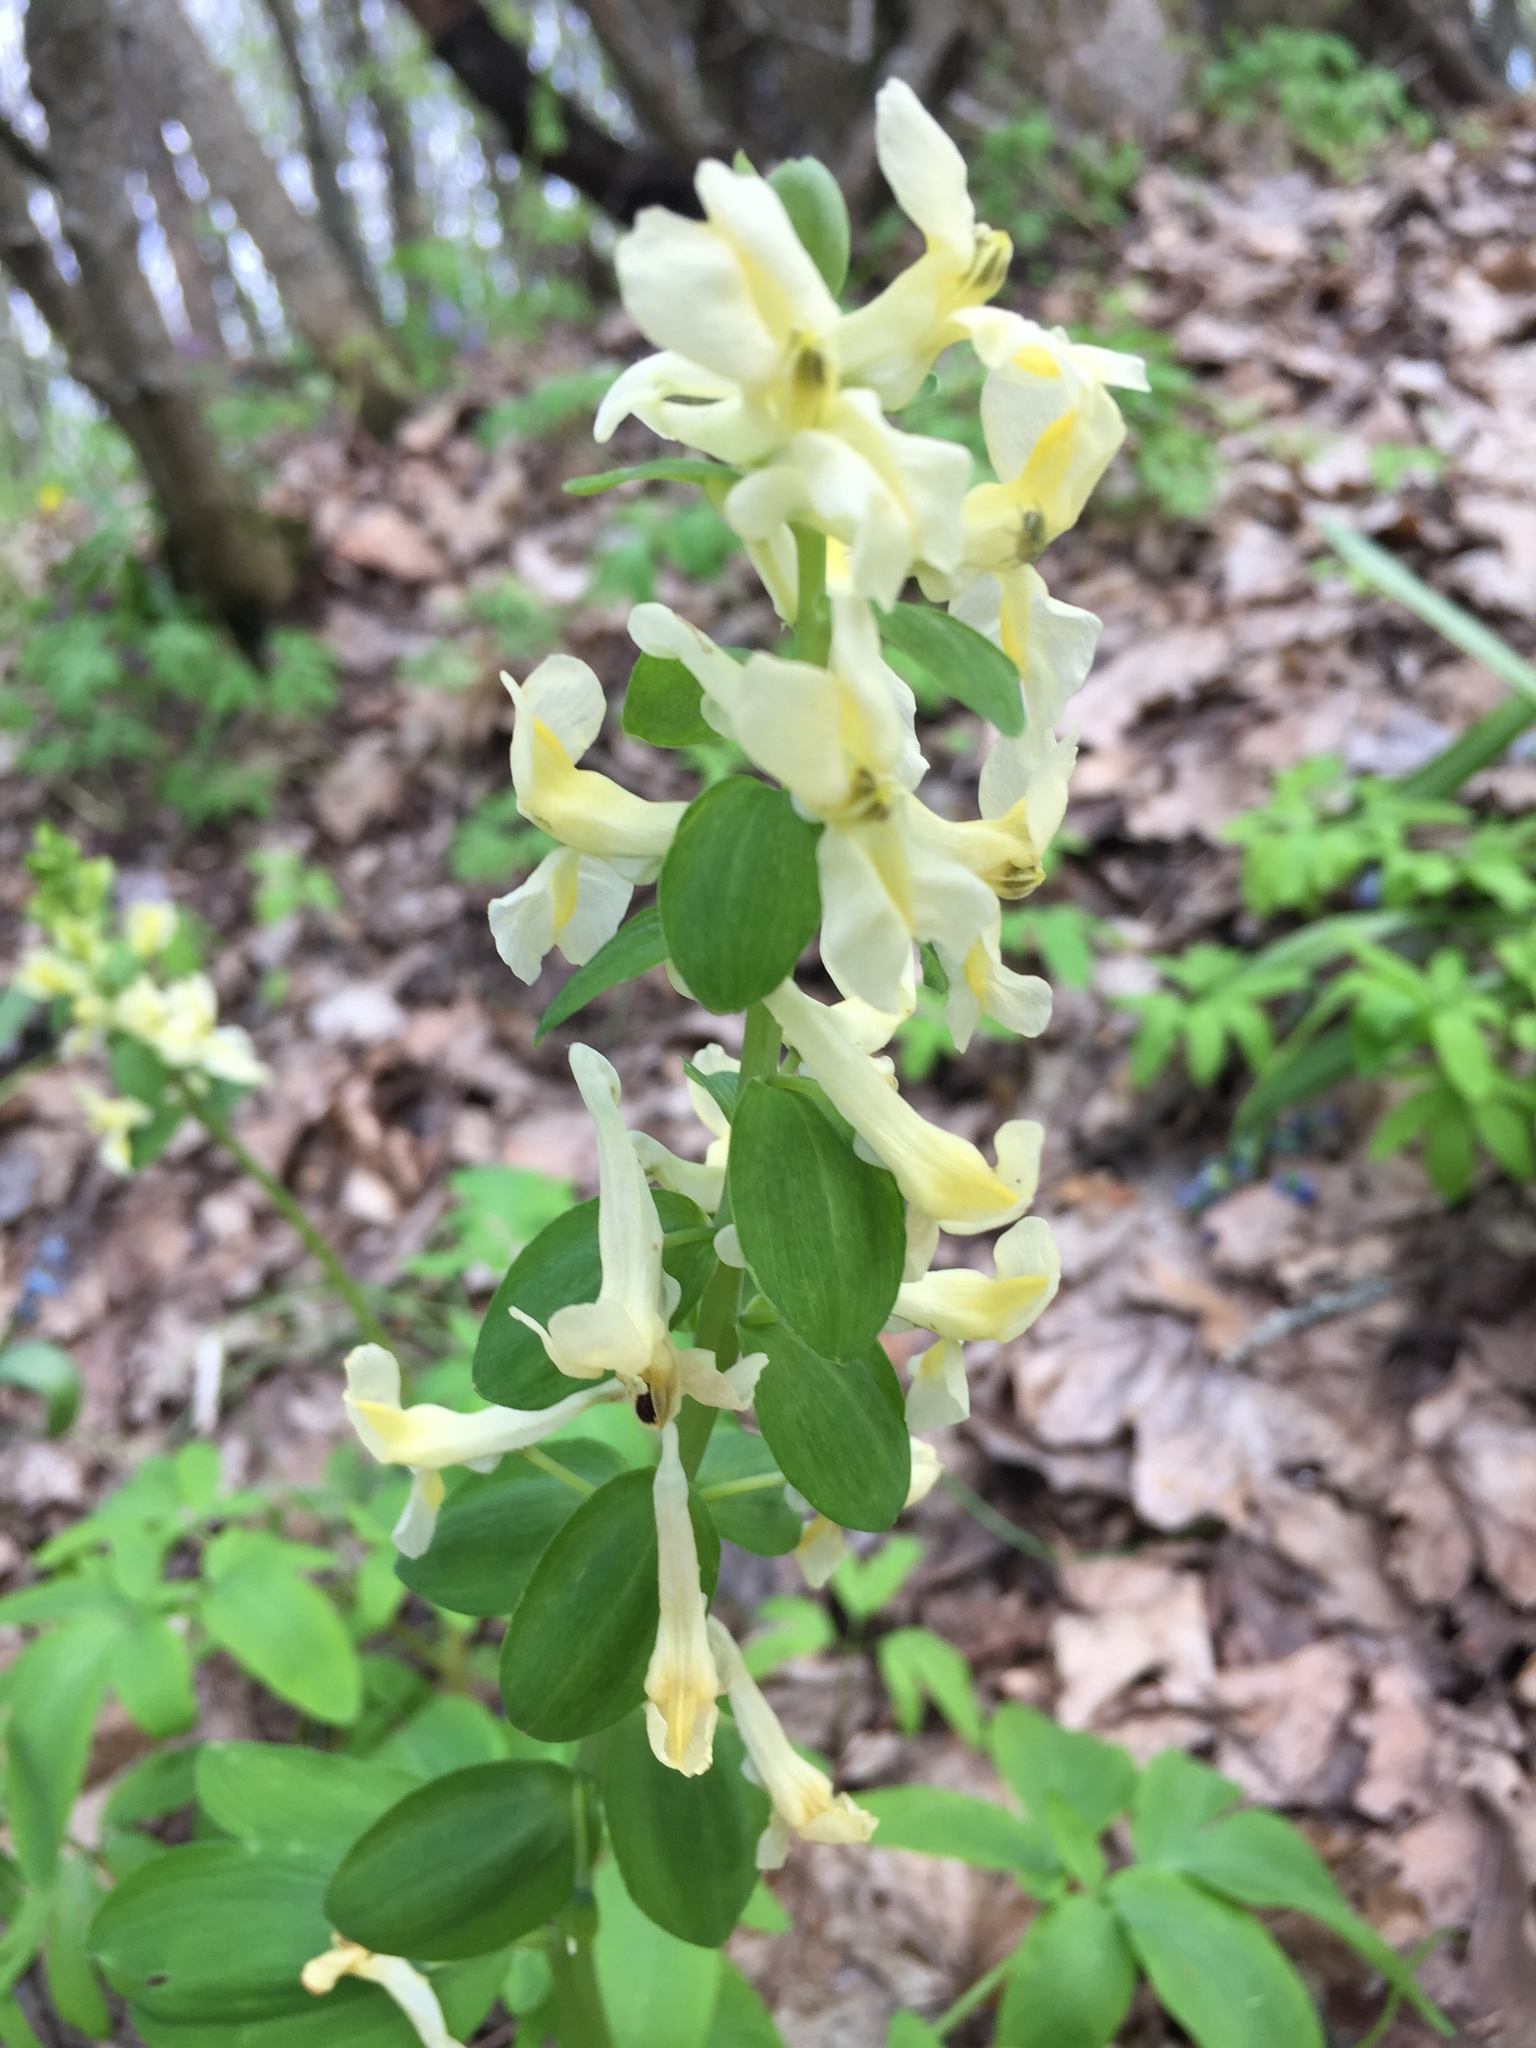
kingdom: Plantae
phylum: Tracheophyta
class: Magnoliopsida
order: Ranunculales
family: Papaveraceae
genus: Corydalis
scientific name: Corydalis cava
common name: Hollowroot
